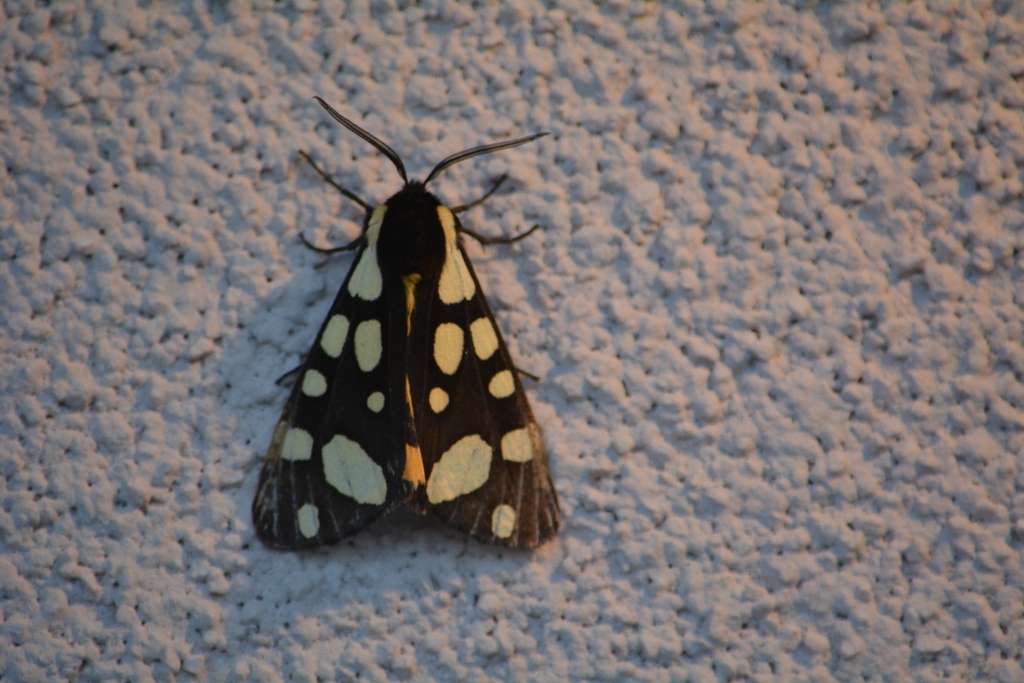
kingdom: Animalia
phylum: Arthropoda
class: Insecta
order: Lepidoptera
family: Erebidae
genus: Epicallia
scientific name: Epicallia villica
